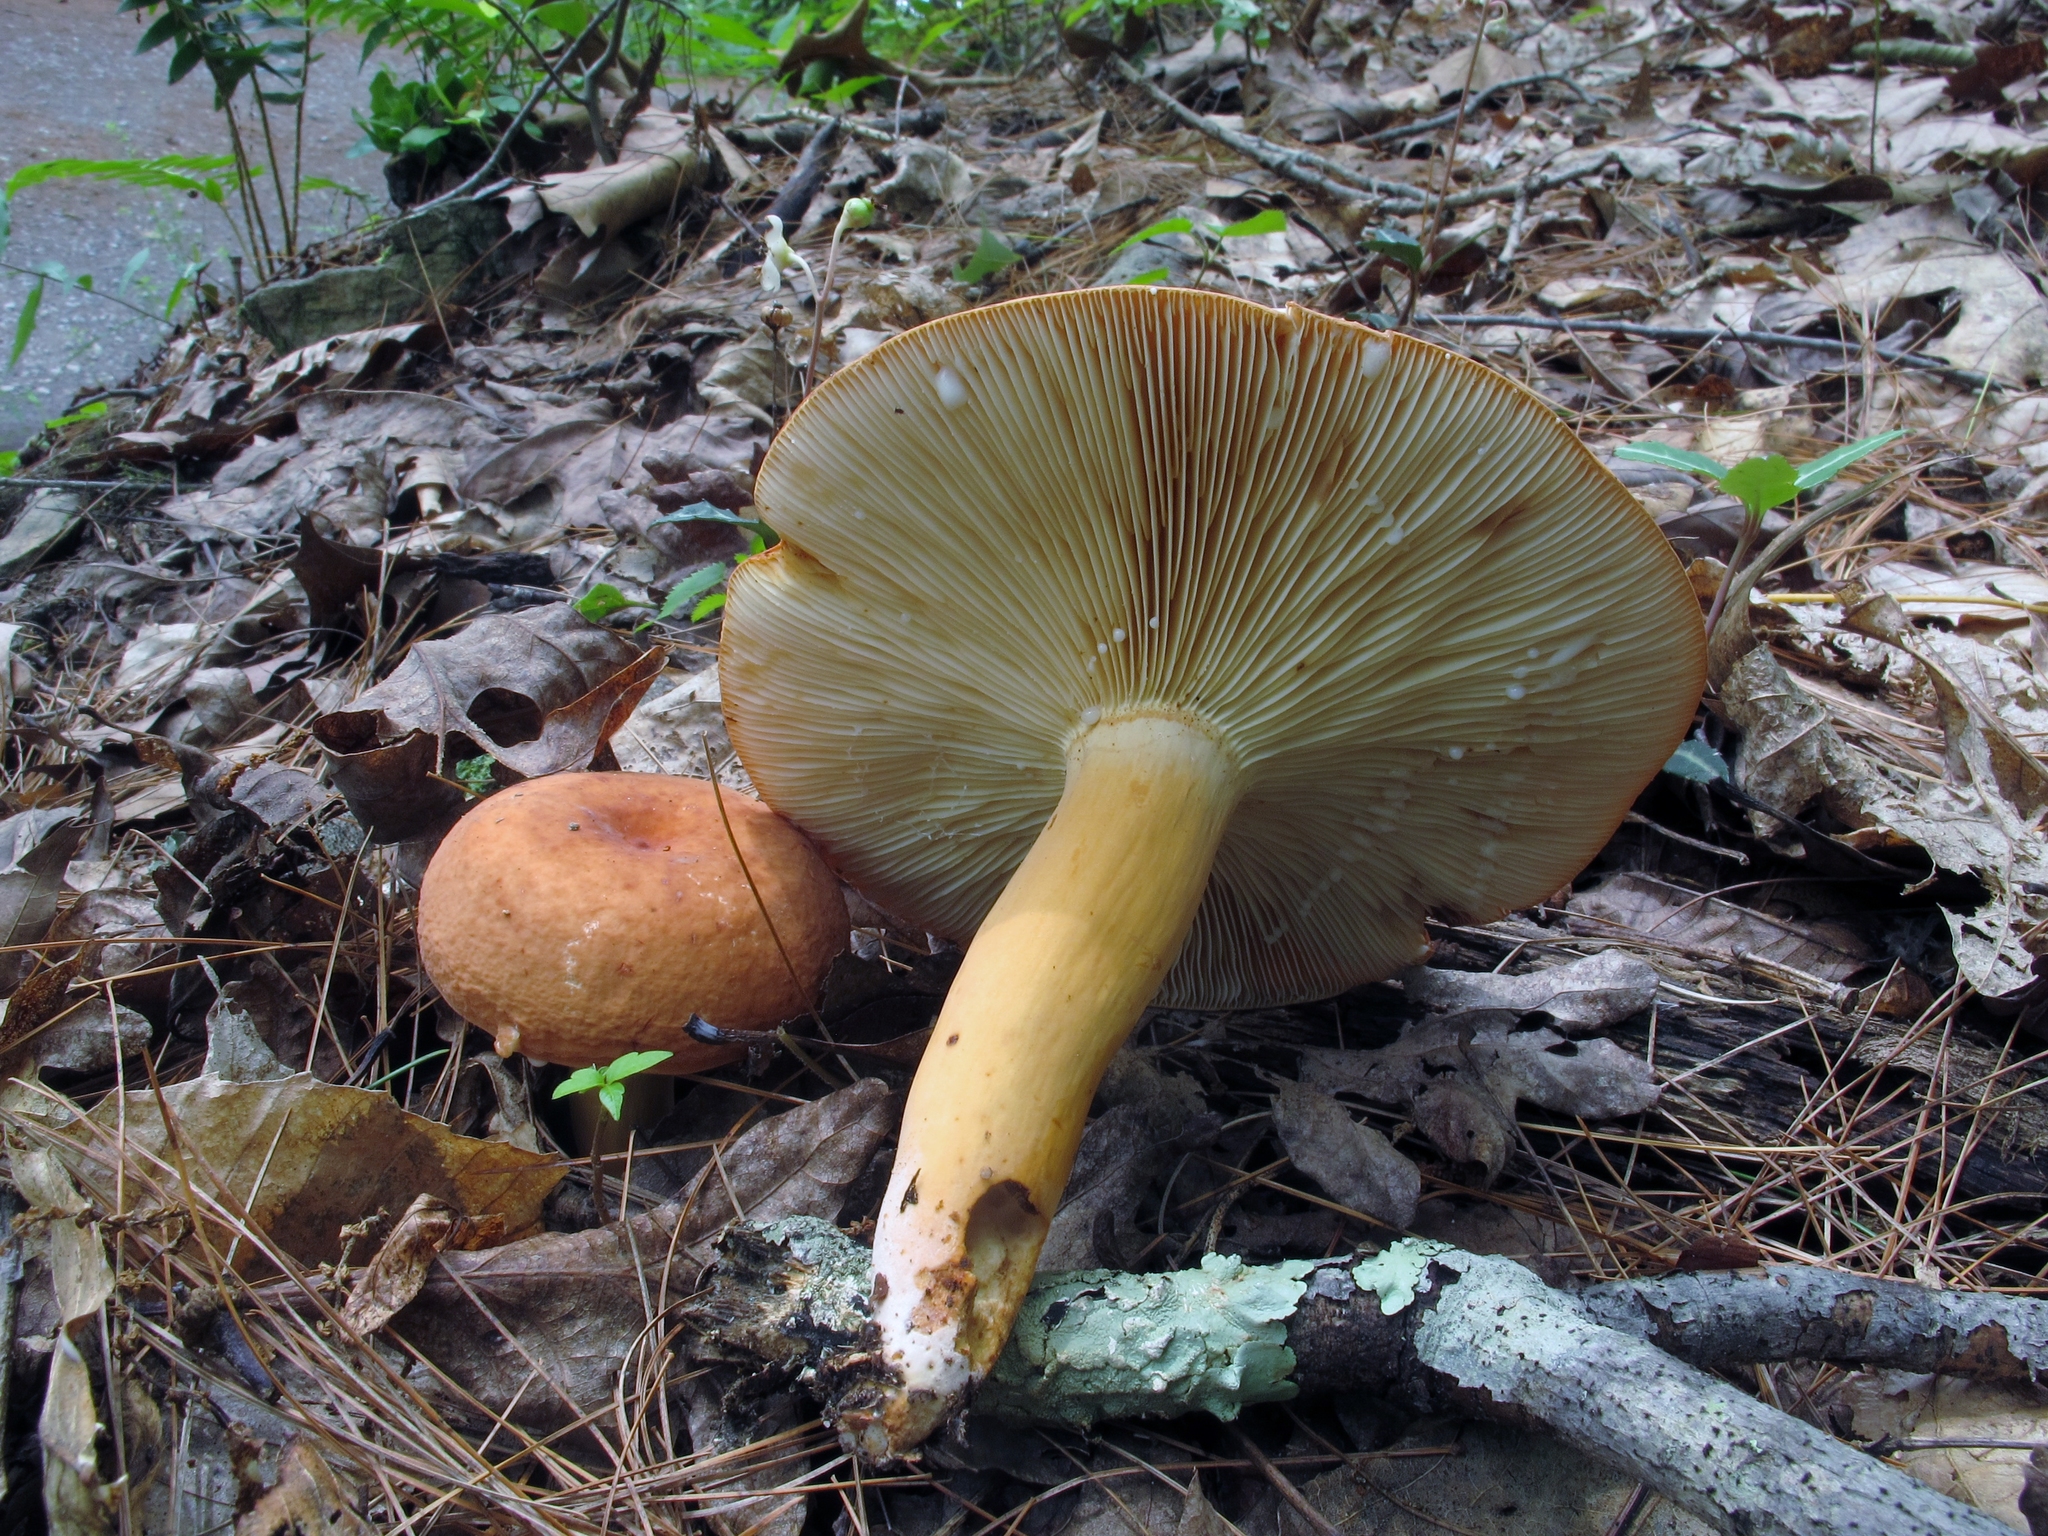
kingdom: Fungi
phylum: Basidiomycota
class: Agaricomycetes
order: Russulales
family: Russulaceae
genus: Lactifluus
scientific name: Lactifluus volemus
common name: Fishy milkcap
